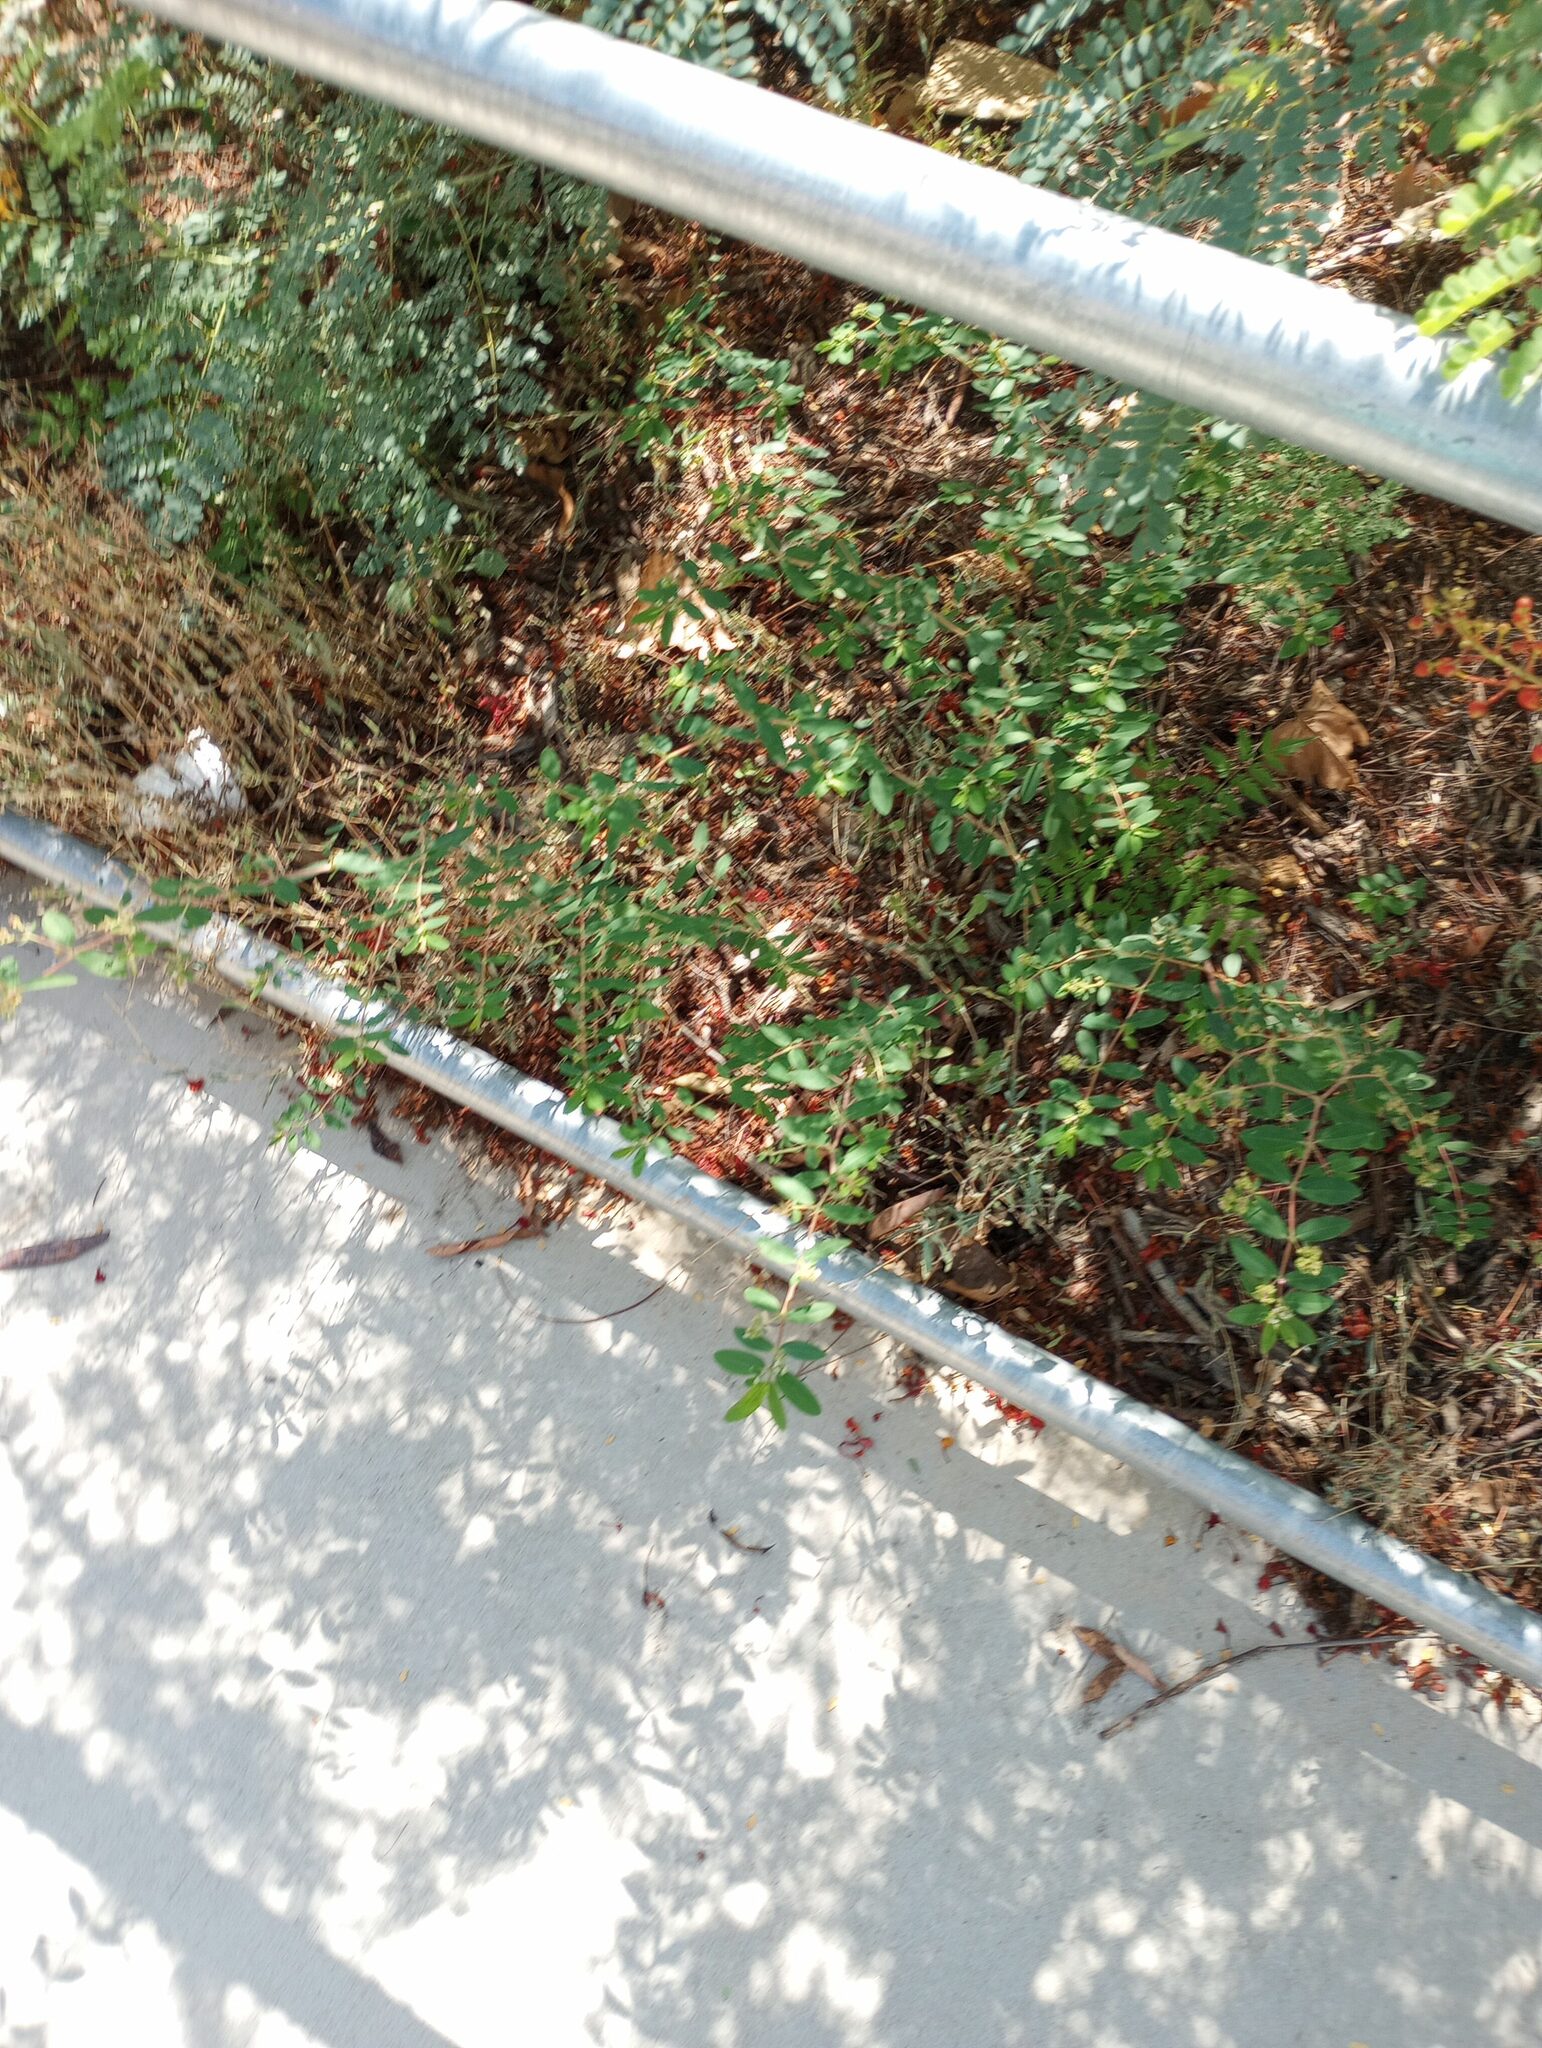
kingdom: Plantae
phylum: Tracheophyta
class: Magnoliopsida
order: Malpighiales
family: Euphorbiaceae
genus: Euphorbia
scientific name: Euphorbia hypericifolia
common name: Graceful sandmat
